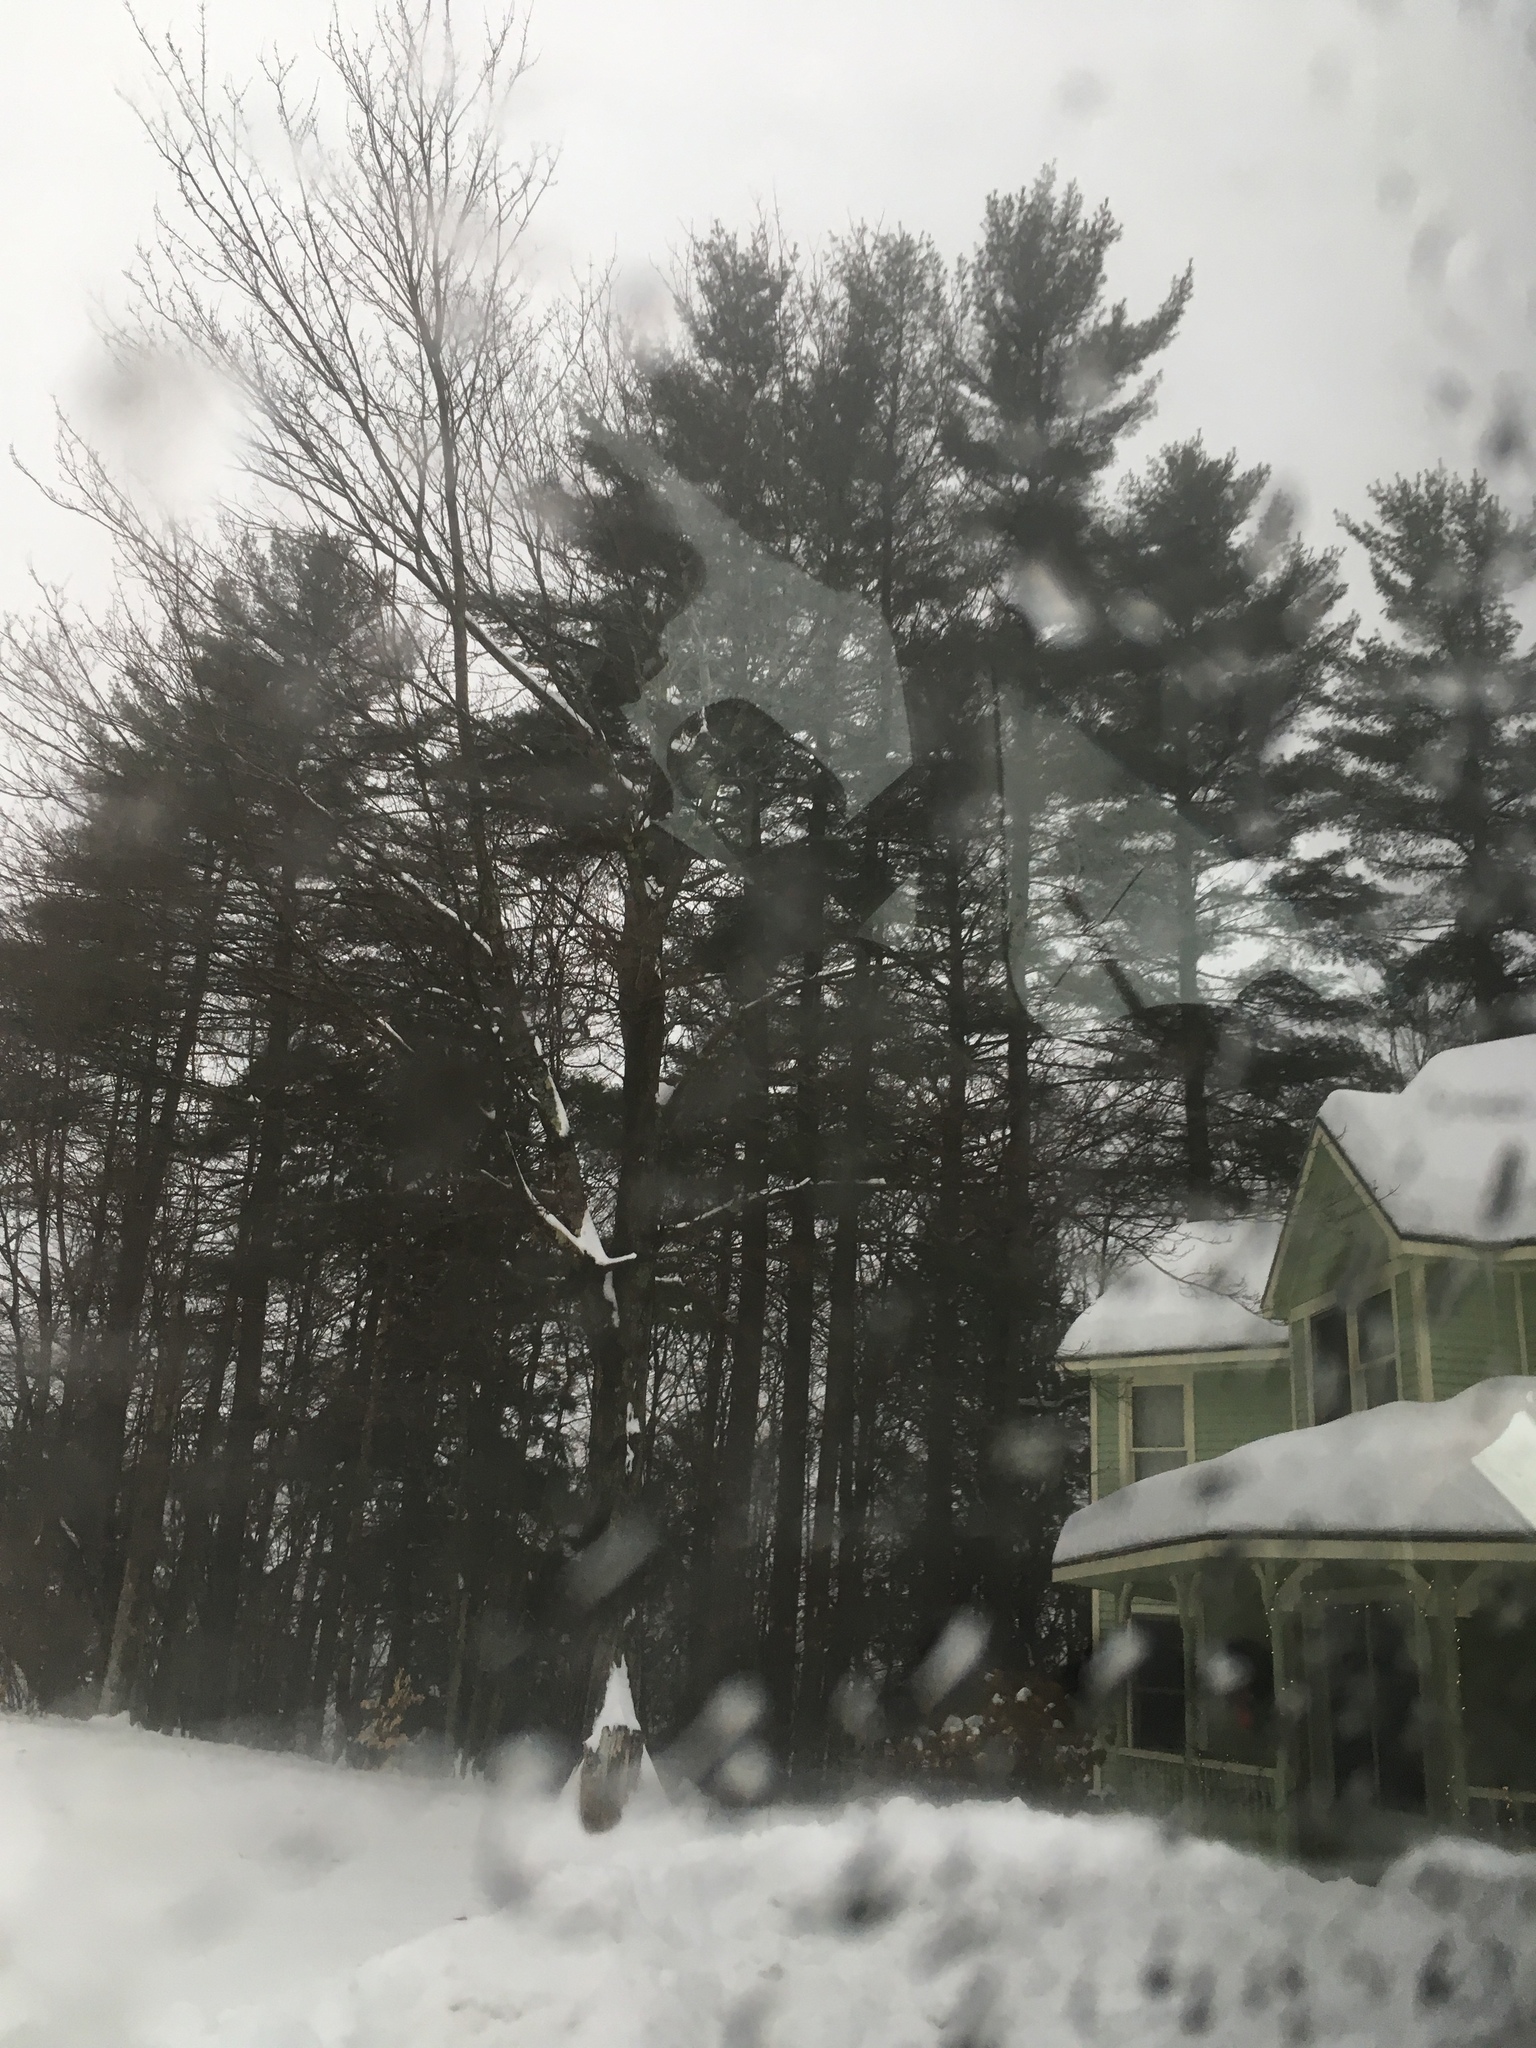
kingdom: Plantae
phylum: Tracheophyta
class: Pinopsida
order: Pinales
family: Pinaceae
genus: Pinus
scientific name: Pinus strobus
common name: Weymouth pine
